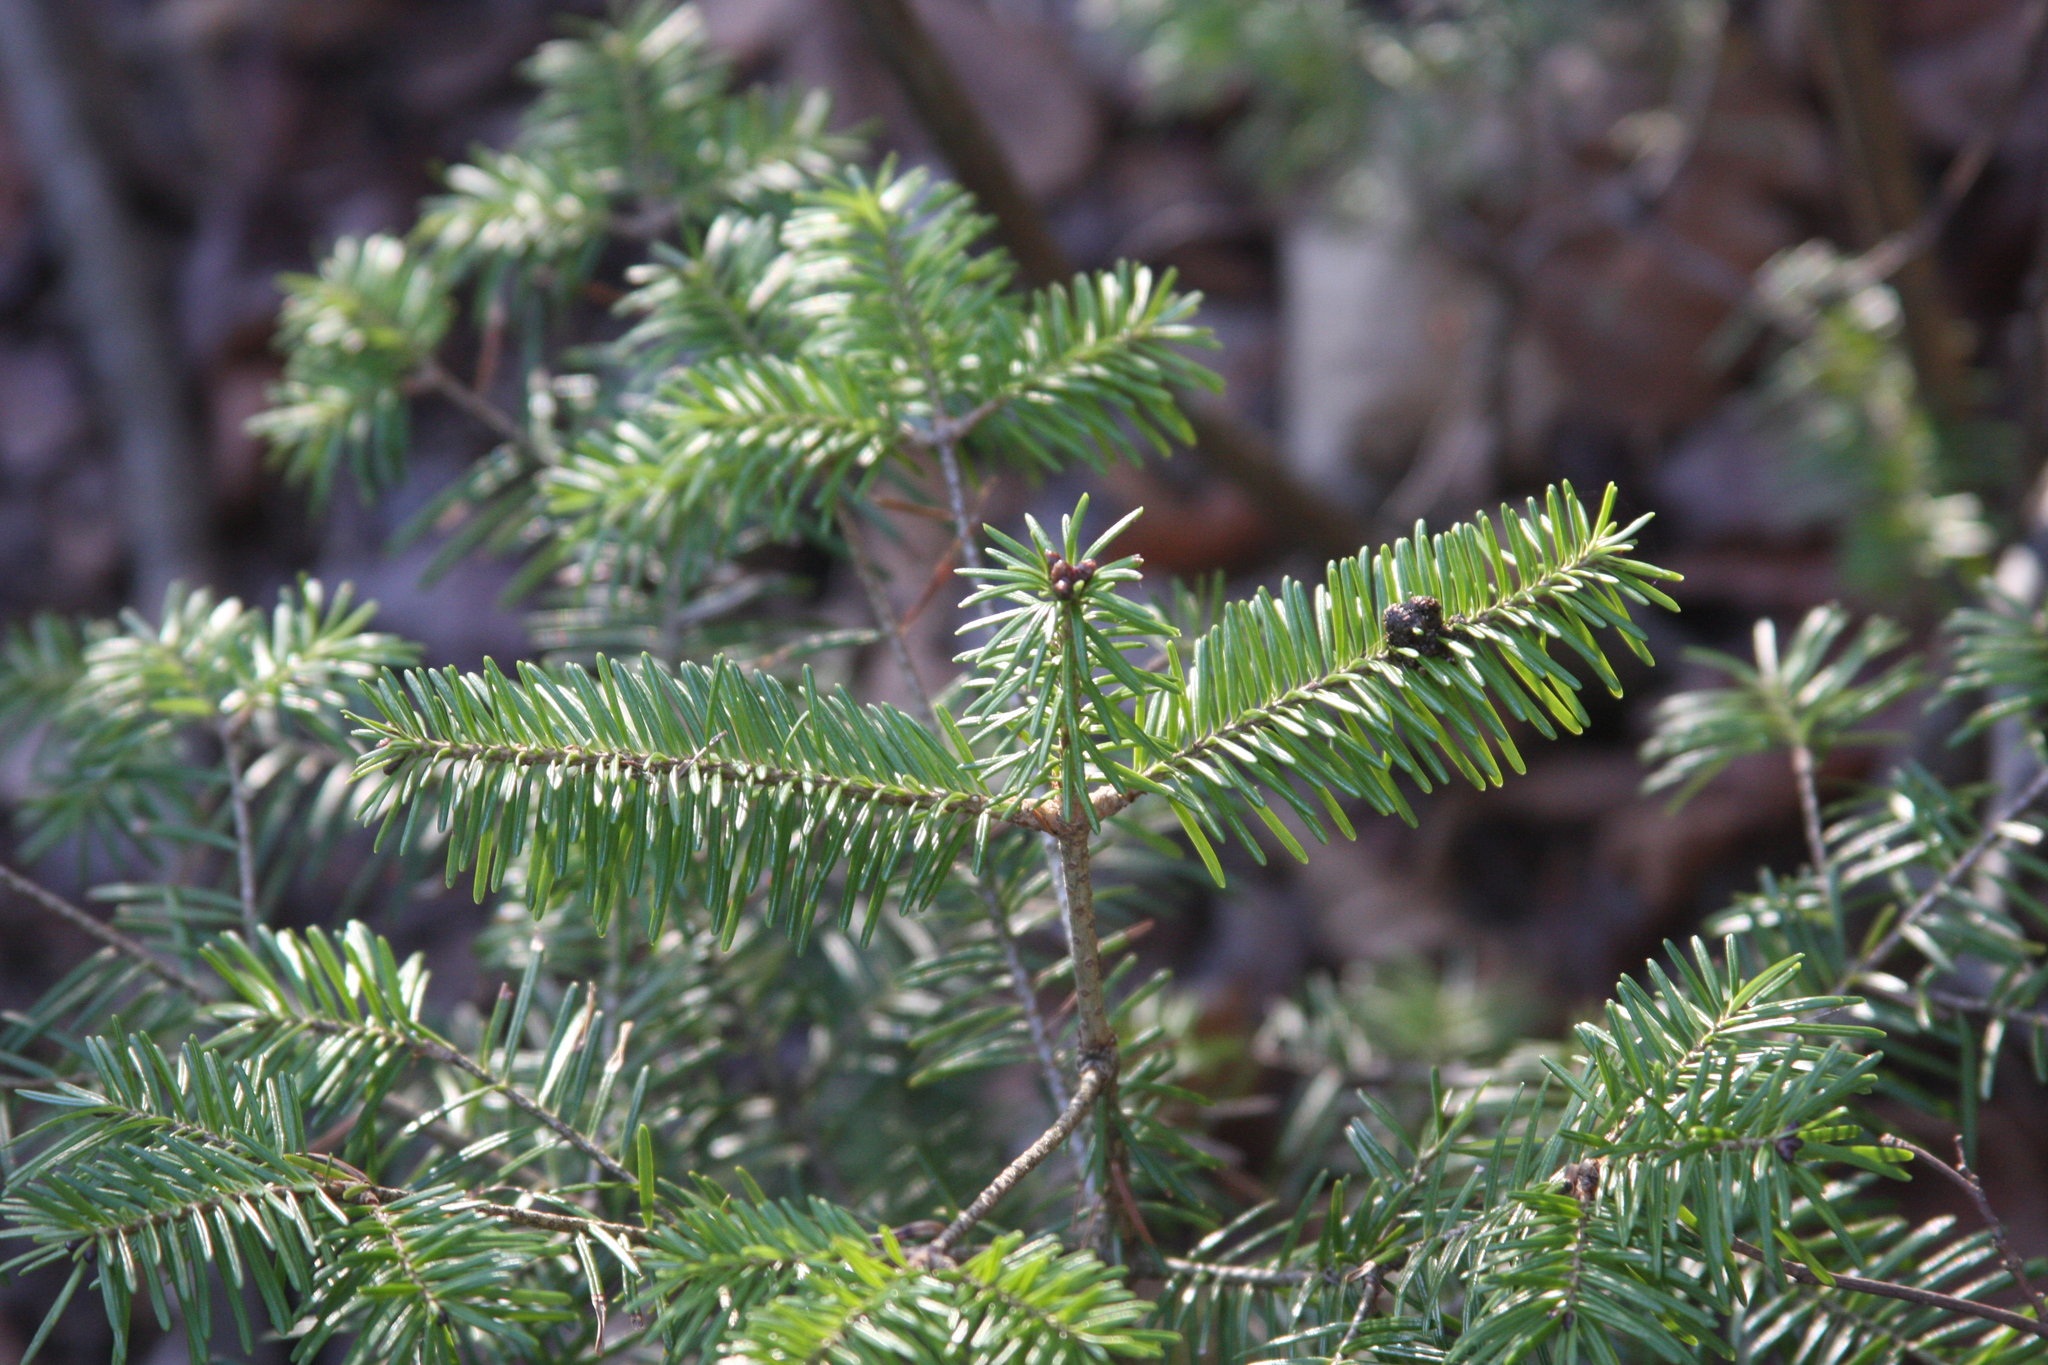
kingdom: Plantae
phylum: Tracheophyta
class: Pinopsida
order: Pinales
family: Pinaceae
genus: Abies
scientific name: Abies balsamea
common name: Balsam fir
